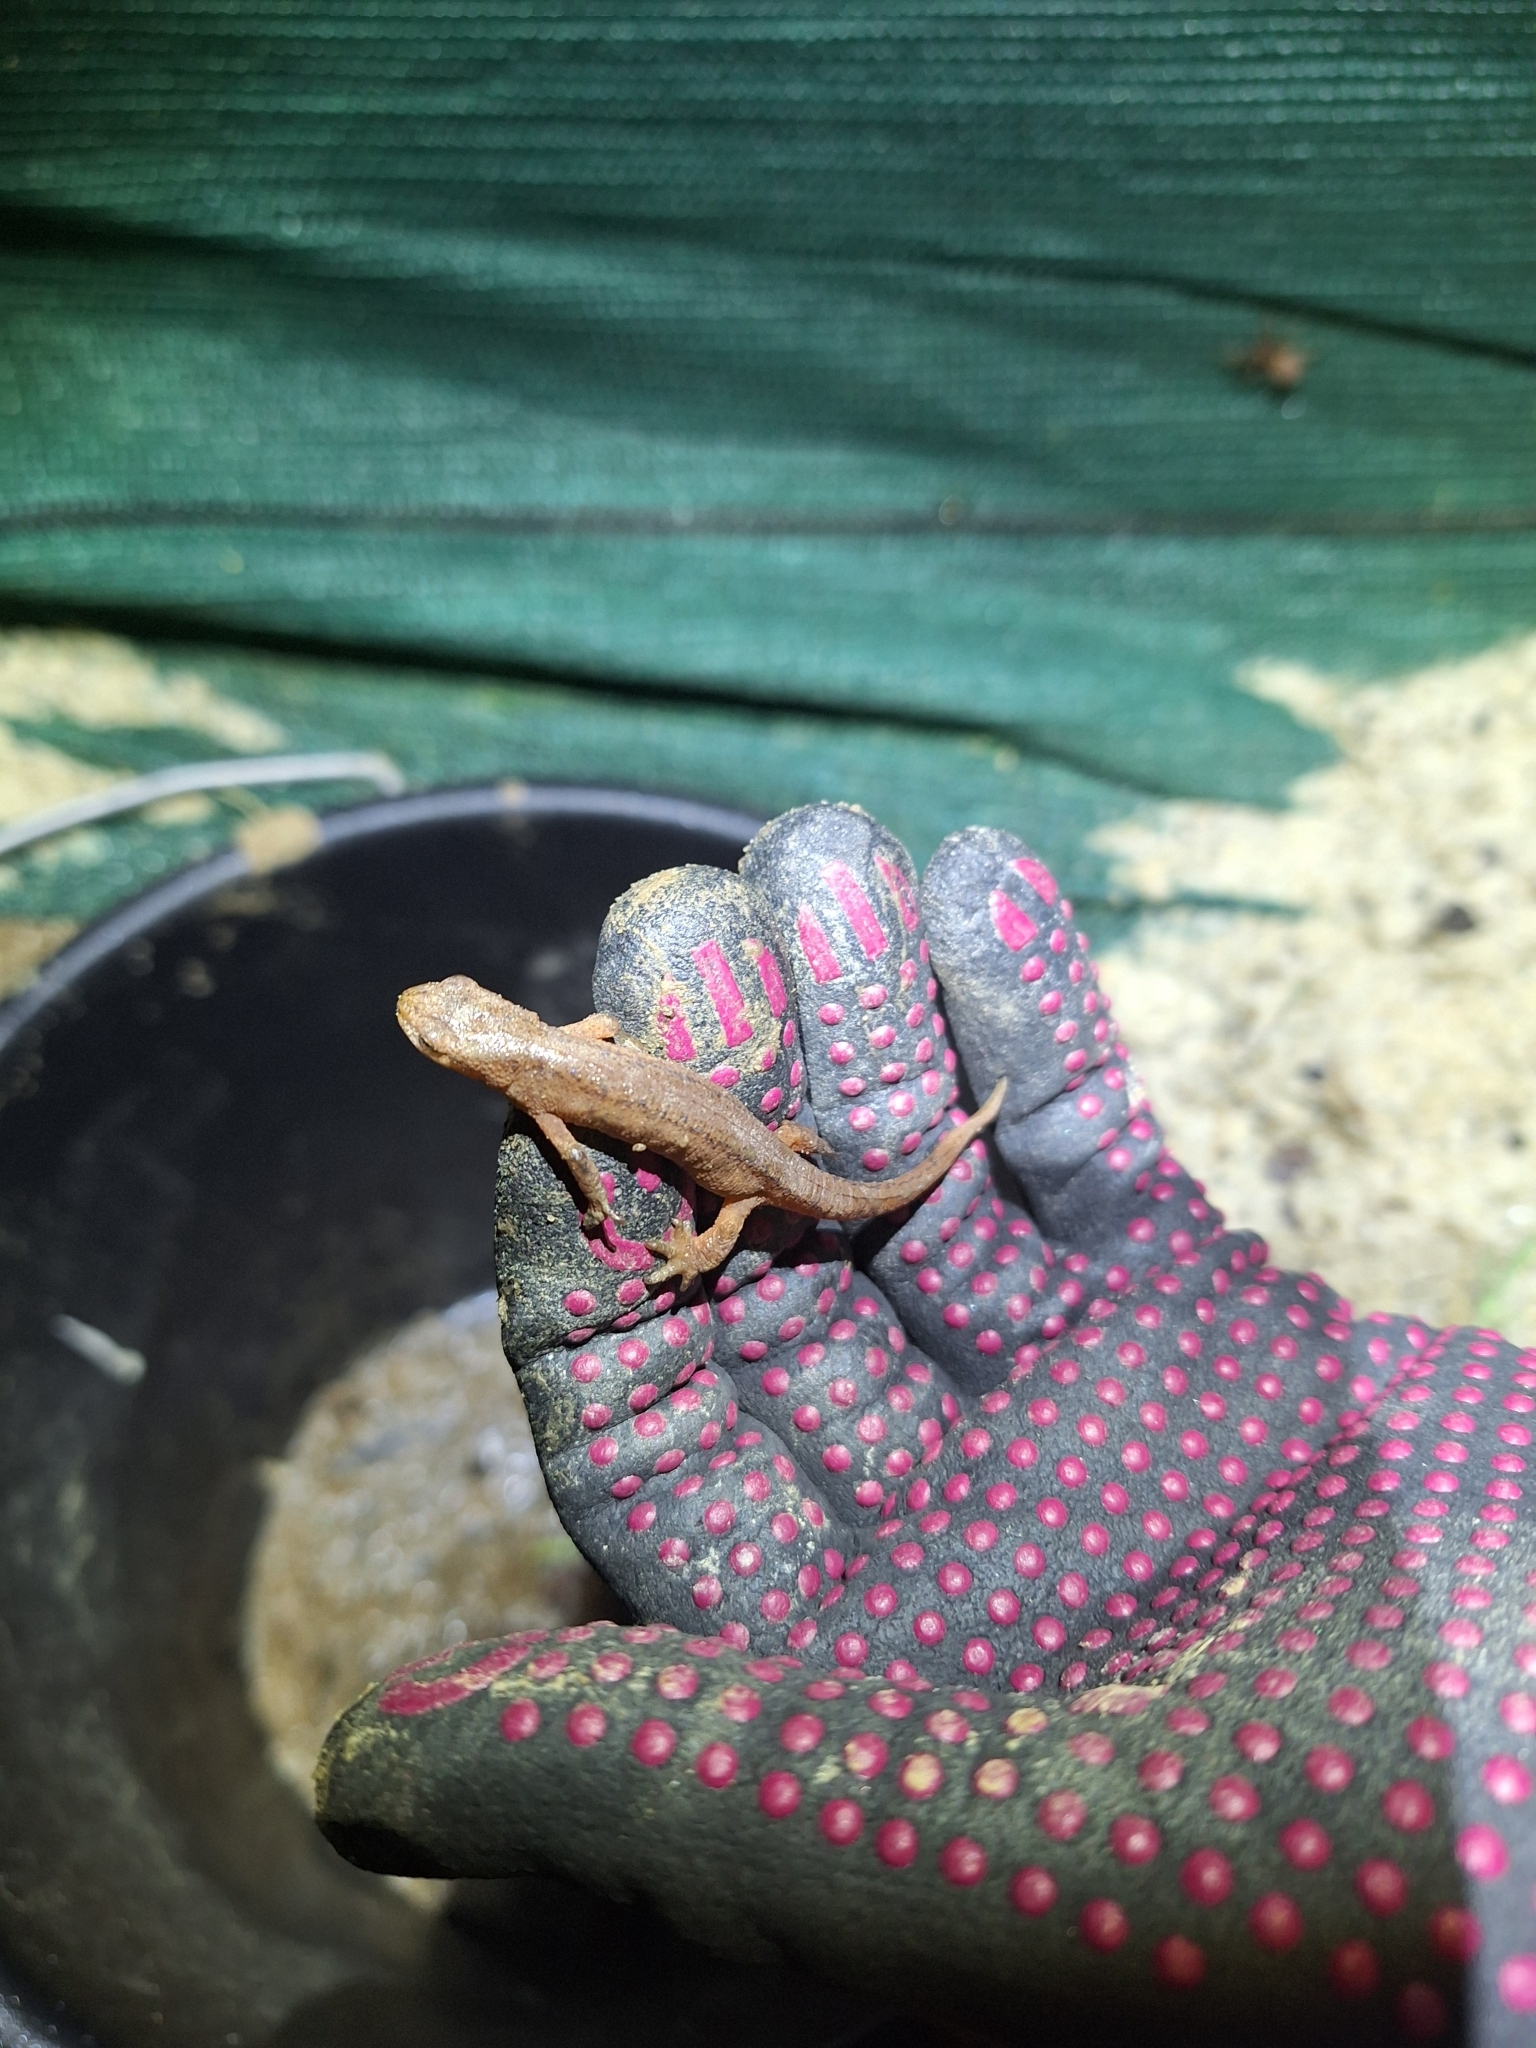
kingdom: Animalia
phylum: Chordata
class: Amphibia
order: Caudata
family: Salamandridae
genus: Lissotriton
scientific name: Lissotriton vulgaris
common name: Smooth newt
